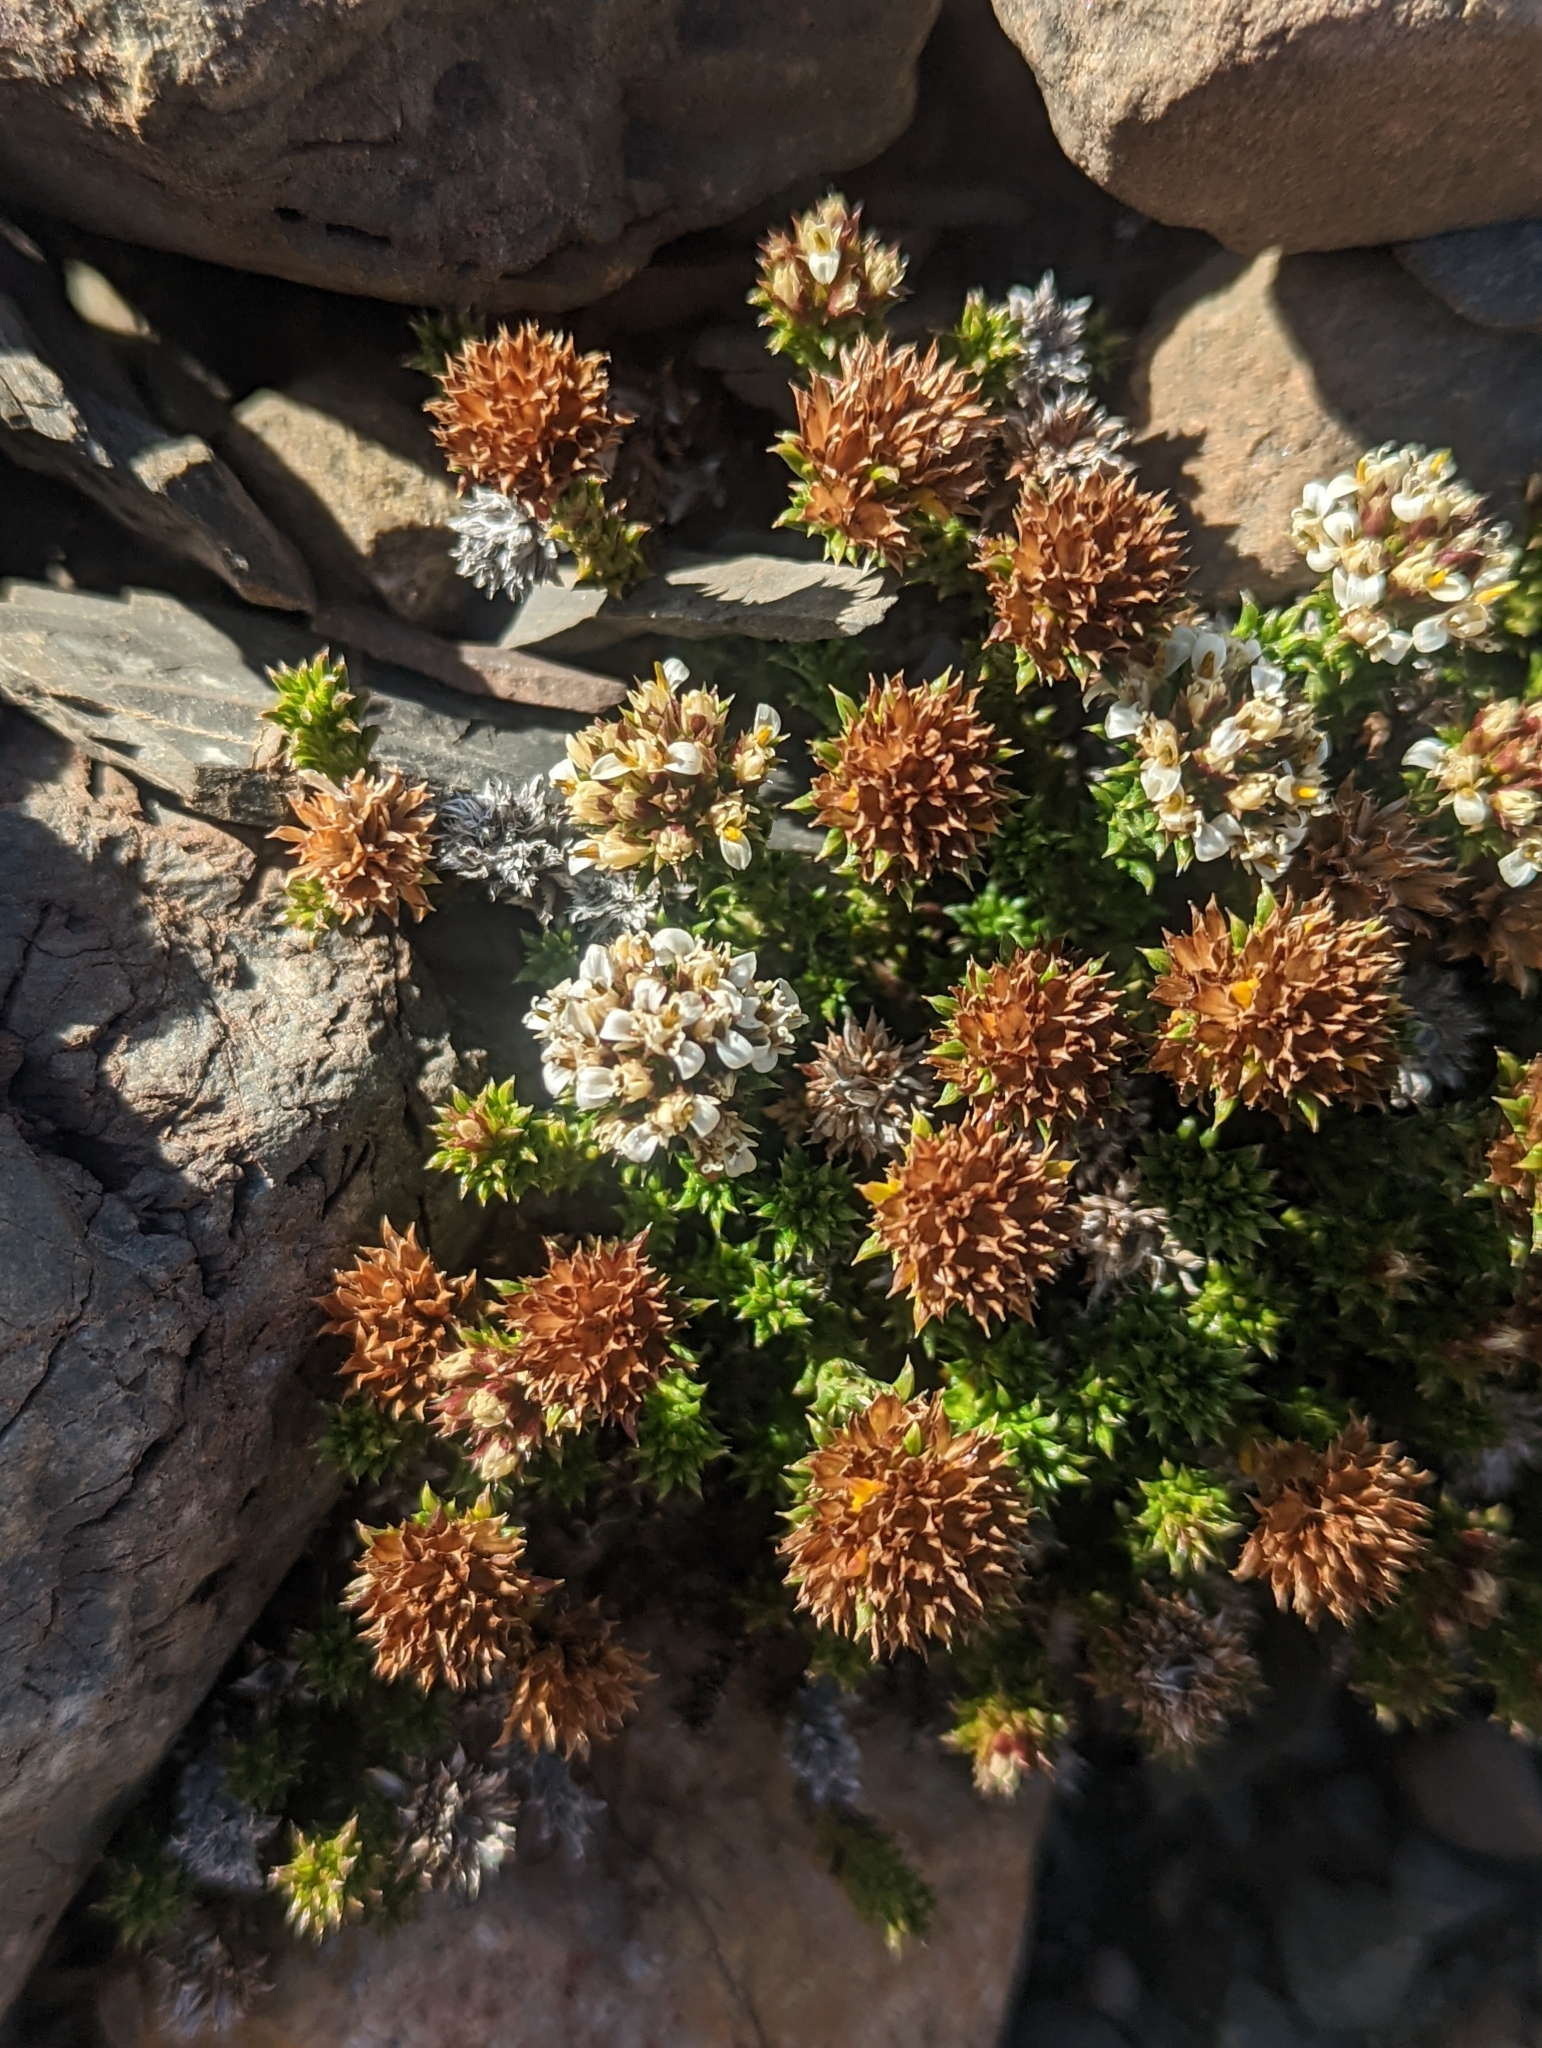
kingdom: Plantae
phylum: Tracheophyta
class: Magnoliopsida
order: Asterales
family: Asteraceae
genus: Nassauvia
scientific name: Nassauvia pygmaea
